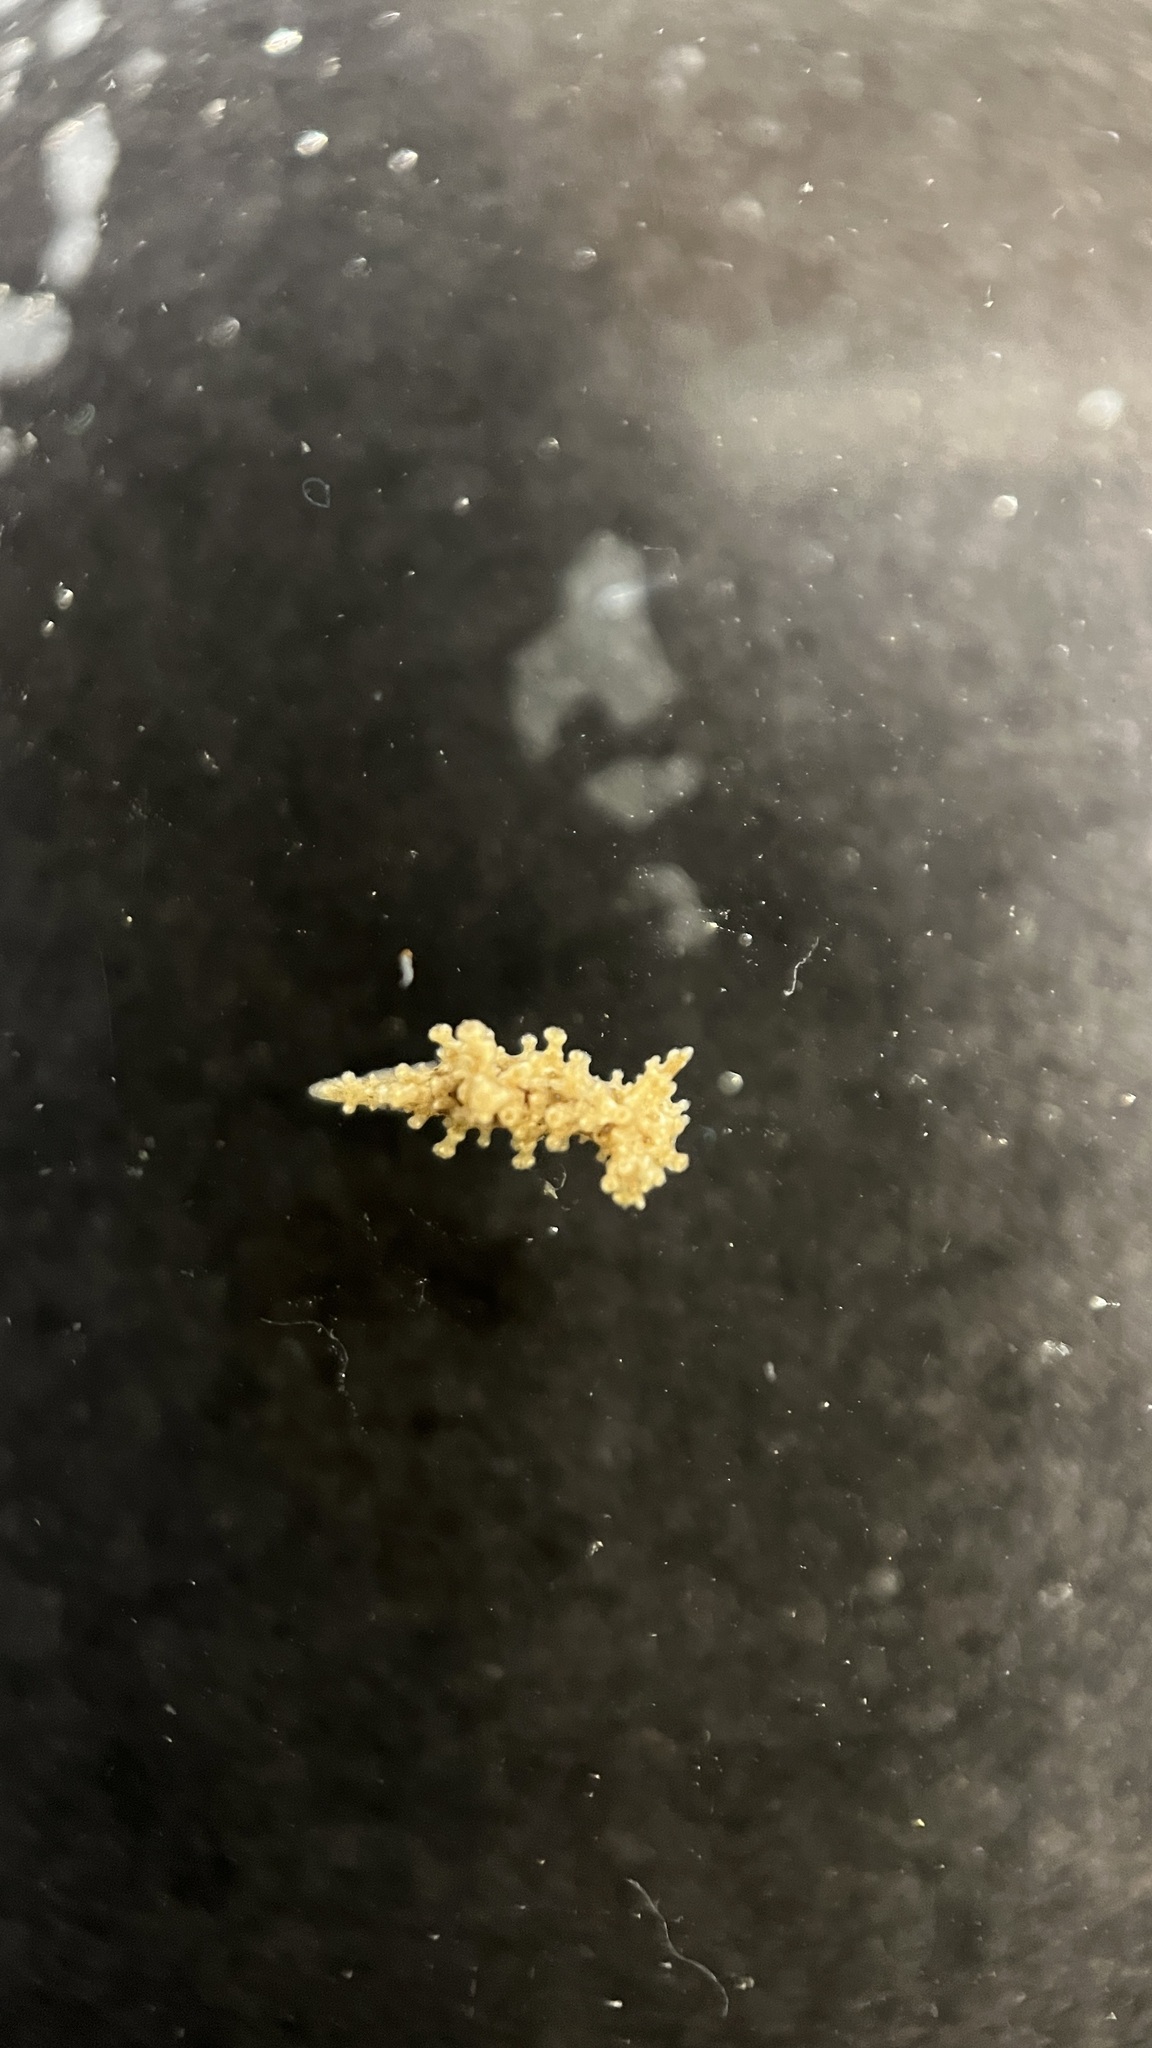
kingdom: Animalia
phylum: Mollusca
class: Gastropoda
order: Nudibranchia
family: Aegiridae
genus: Aegires
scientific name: Aegires exeches
